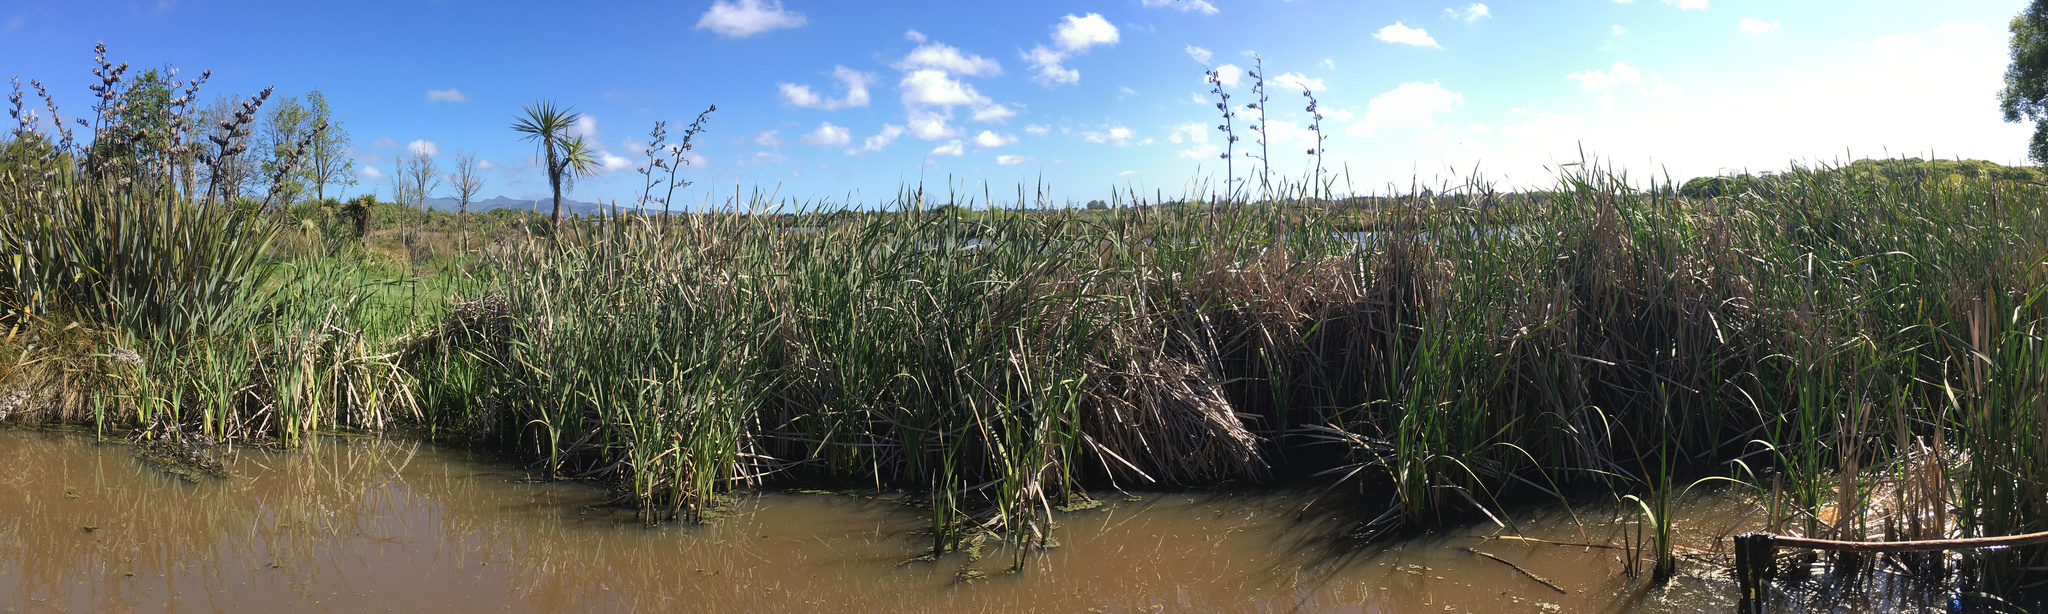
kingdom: Plantae
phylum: Tracheophyta
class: Liliopsida
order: Poales
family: Typhaceae
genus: Typha
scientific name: Typha orientalis
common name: Bullrush
